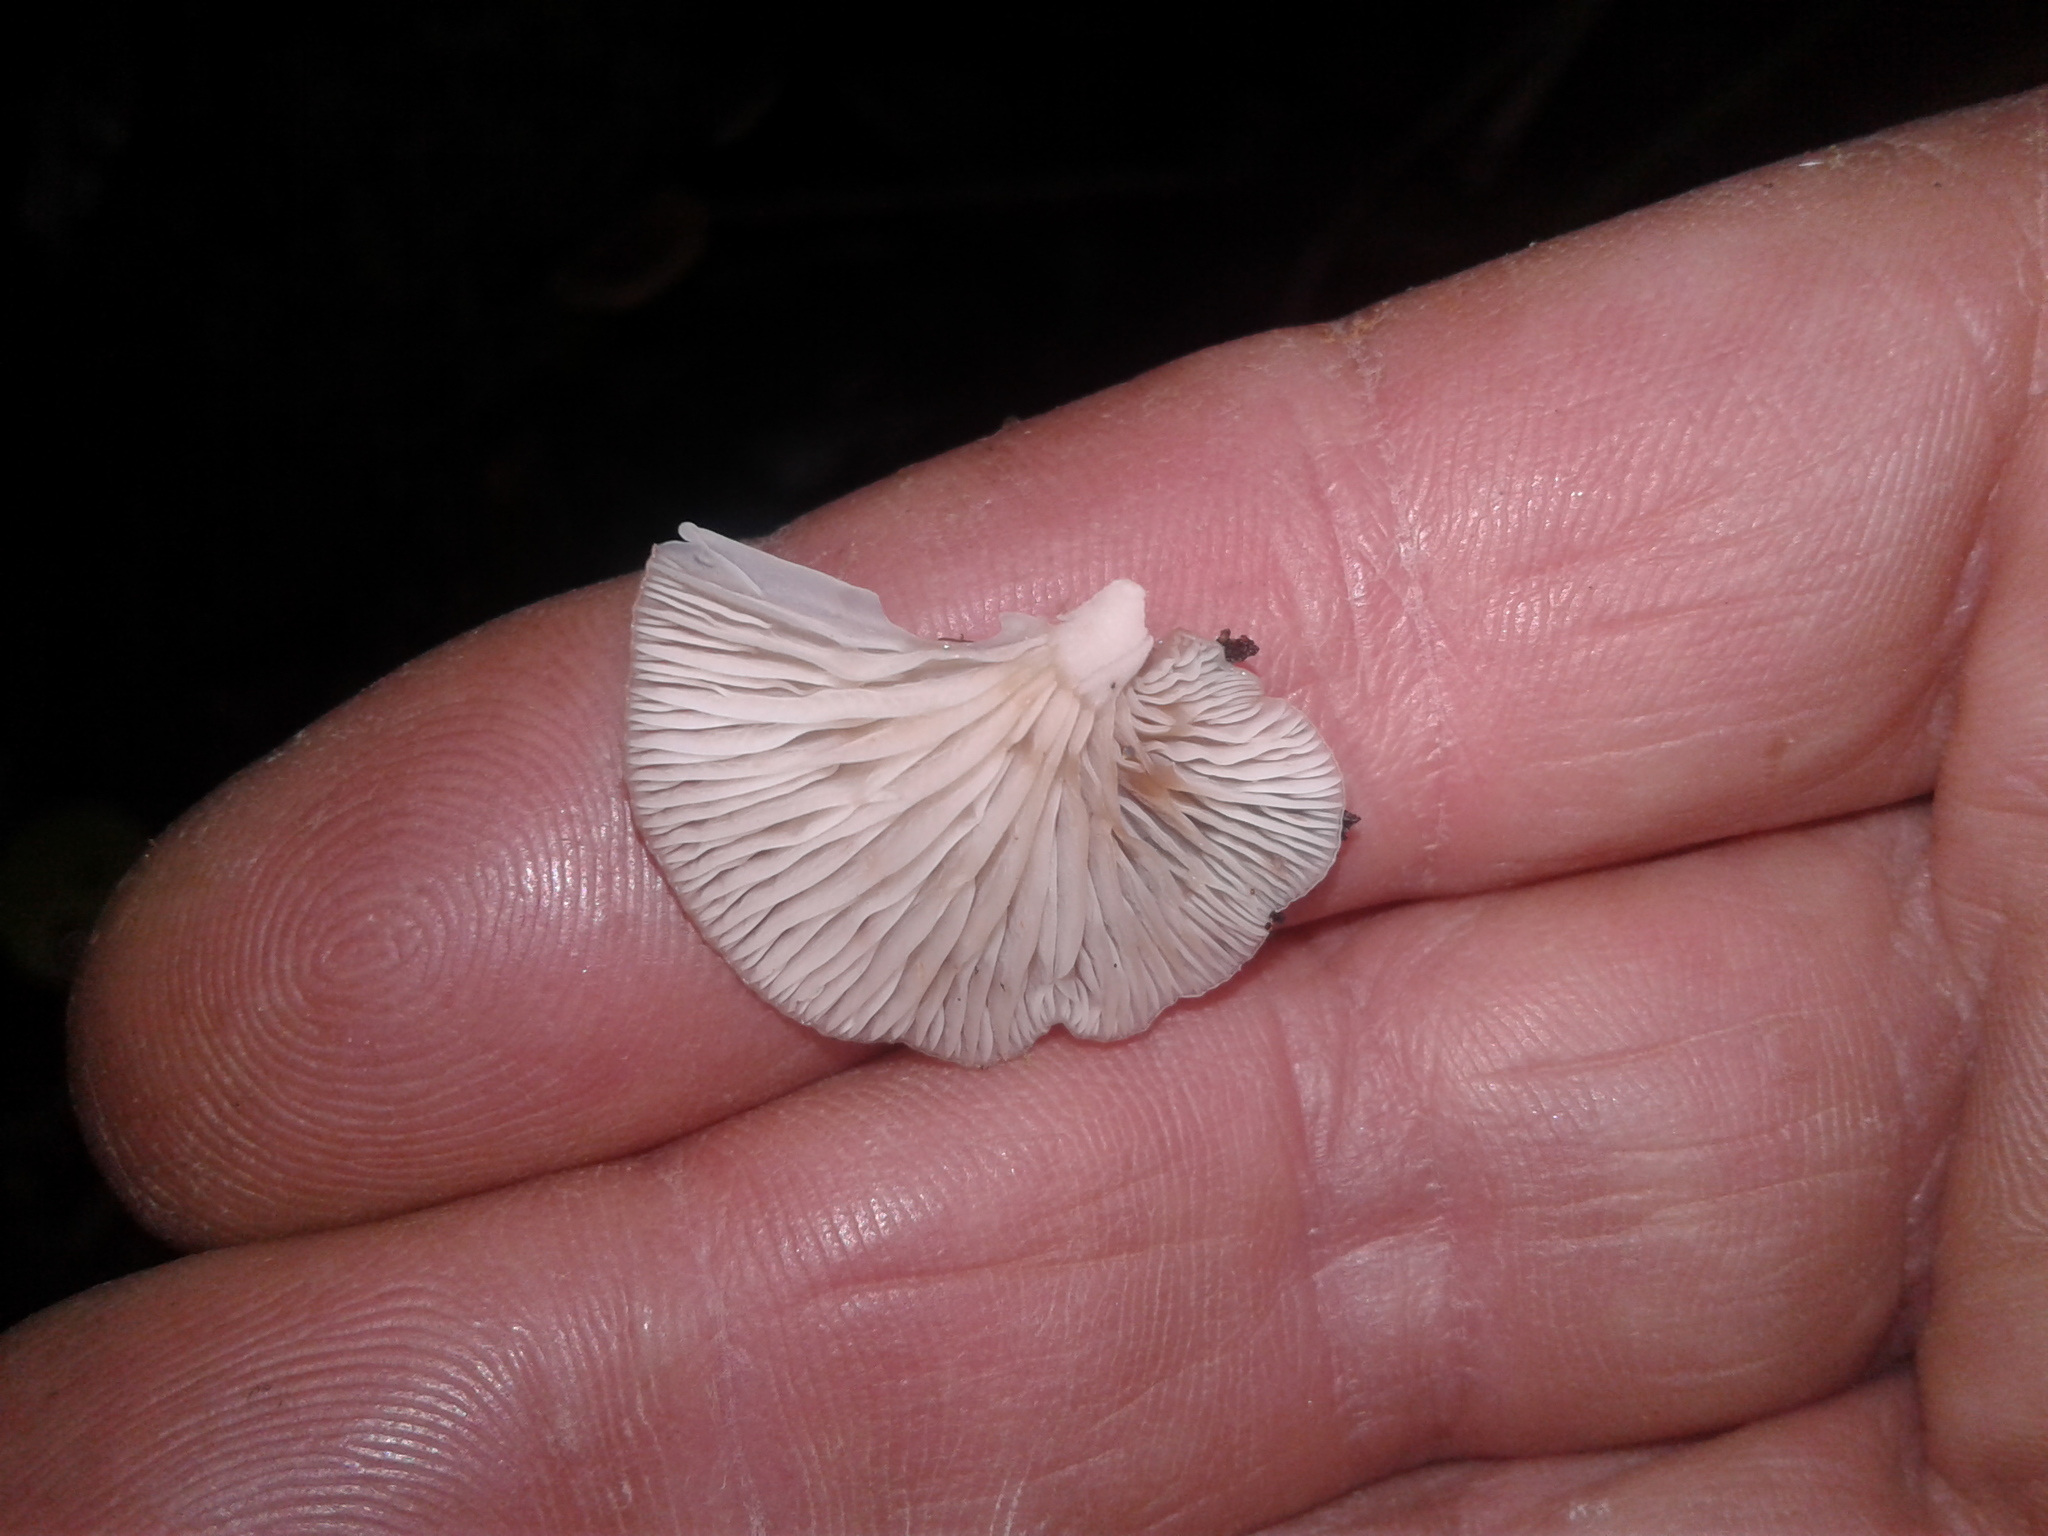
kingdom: Fungi
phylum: Basidiomycota
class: Agaricomycetes
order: Agaricales
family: Mycenaceae
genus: Panellus
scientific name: Panellus longinquus
